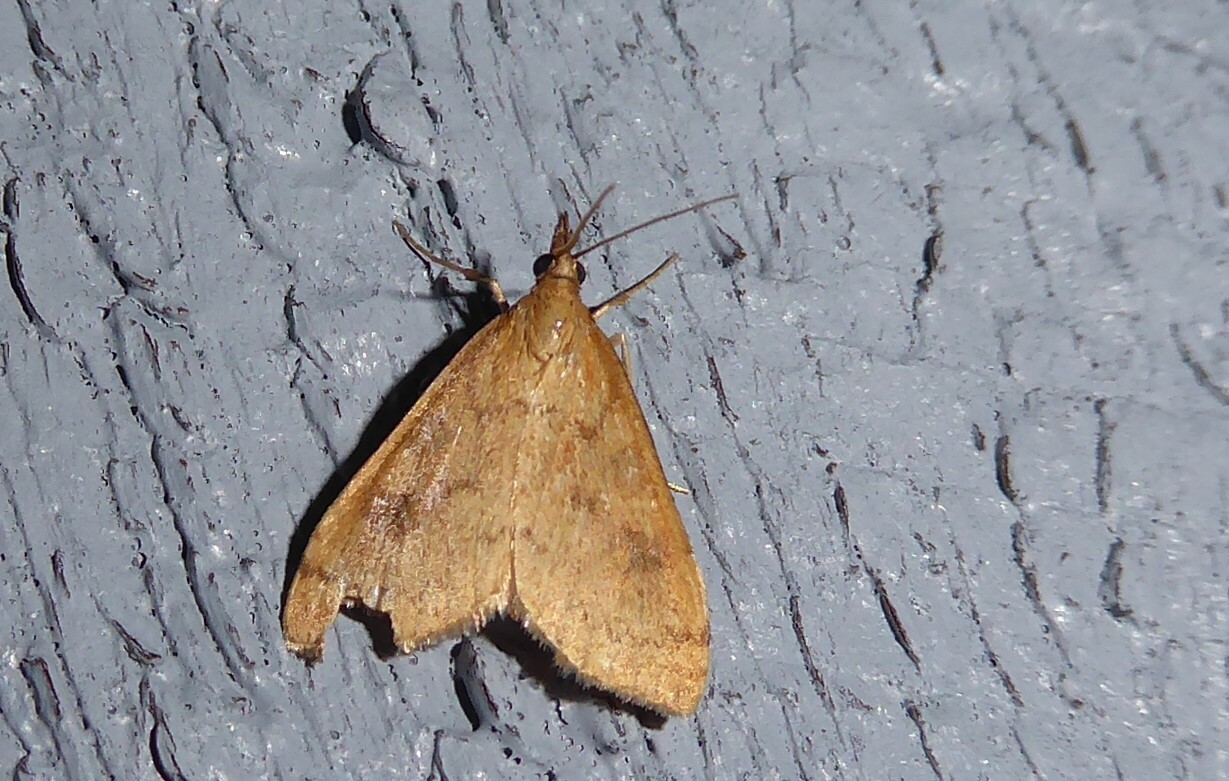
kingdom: Animalia
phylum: Arthropoda
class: Insecta
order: Lepidoptera
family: Crambidae
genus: Udea
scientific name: Udea Mnesictena flavidalis
